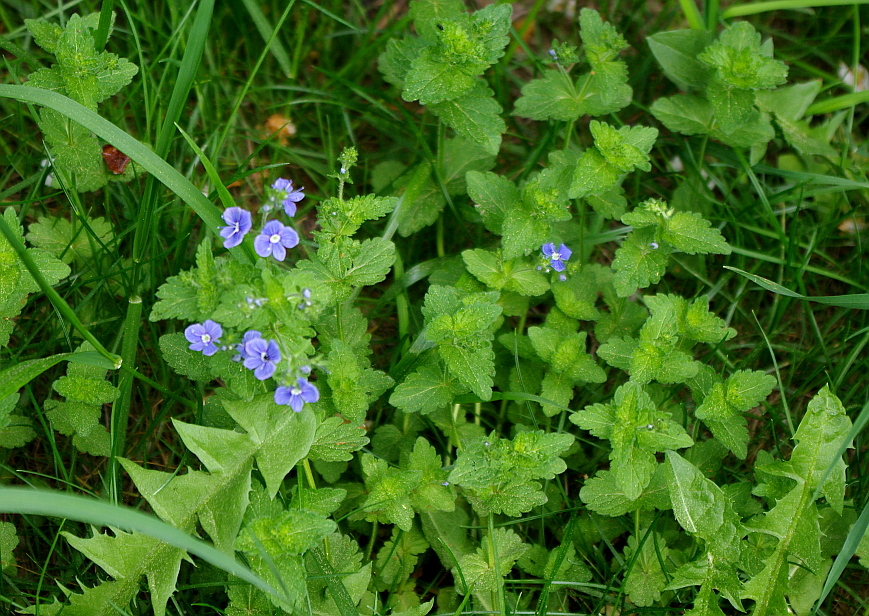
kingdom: Plantae
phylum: Tracheophyta
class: Magnoliopsida
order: Lamiales
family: Plantaginaceae
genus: Veronica
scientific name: Veronica chamaedrys
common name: Germander speedwell
